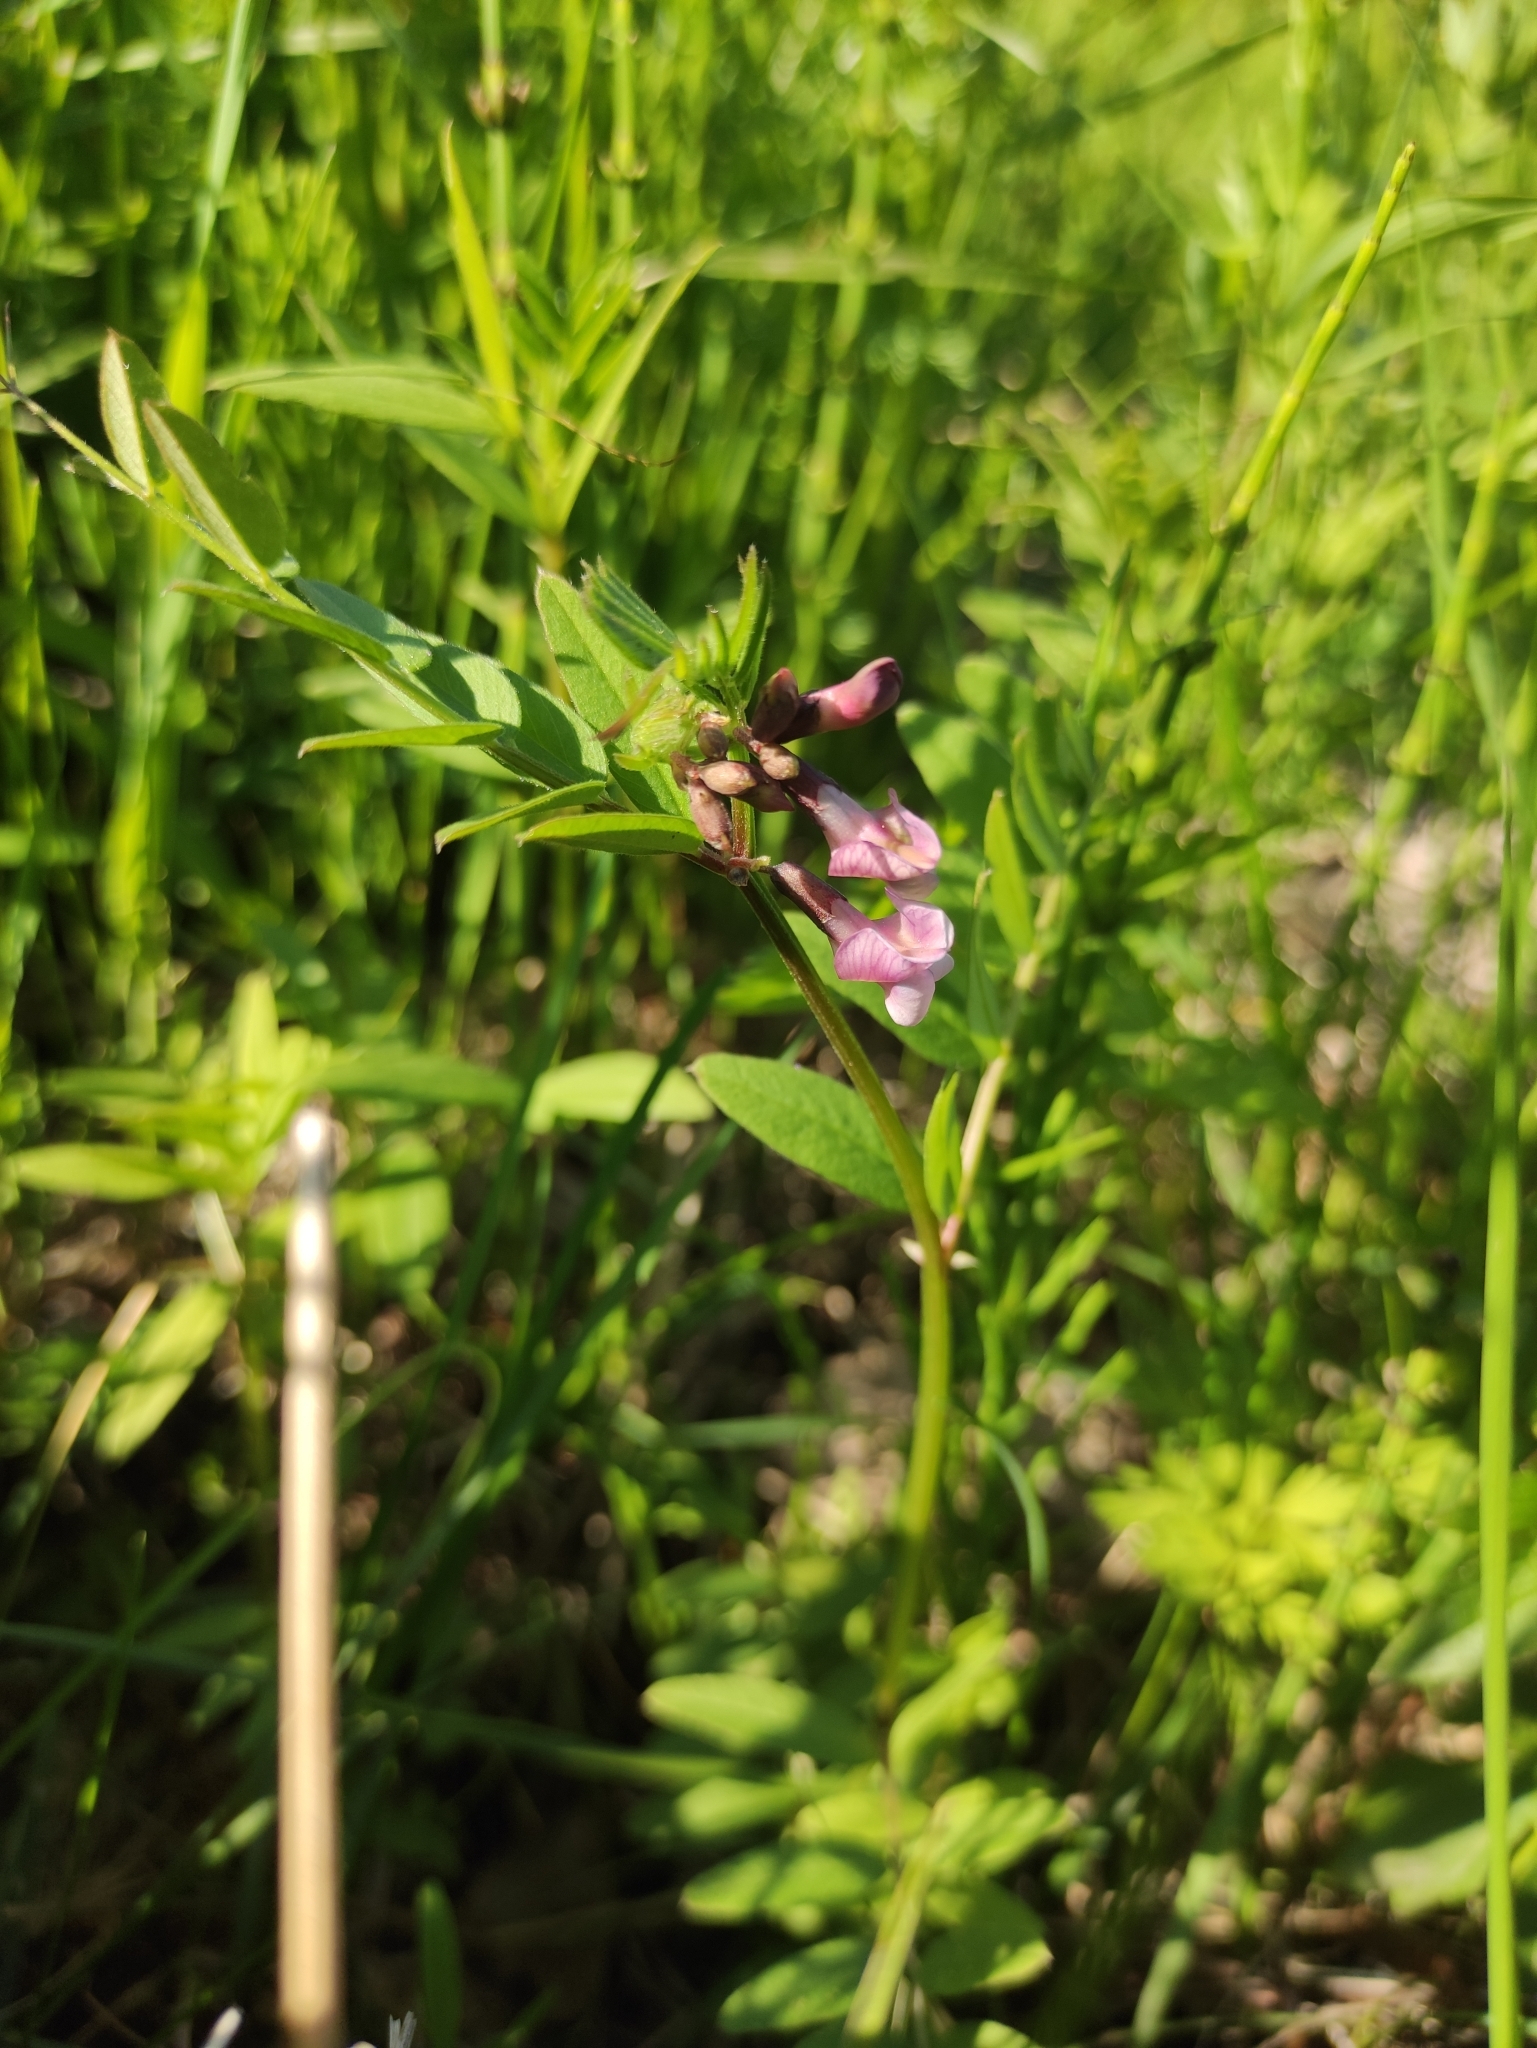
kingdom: Plantae
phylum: Tracheophyta
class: Magnoliopsida
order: Fabales
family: Fabaceae
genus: Vicia
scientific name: Vicia sepium
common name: Bush vetch
